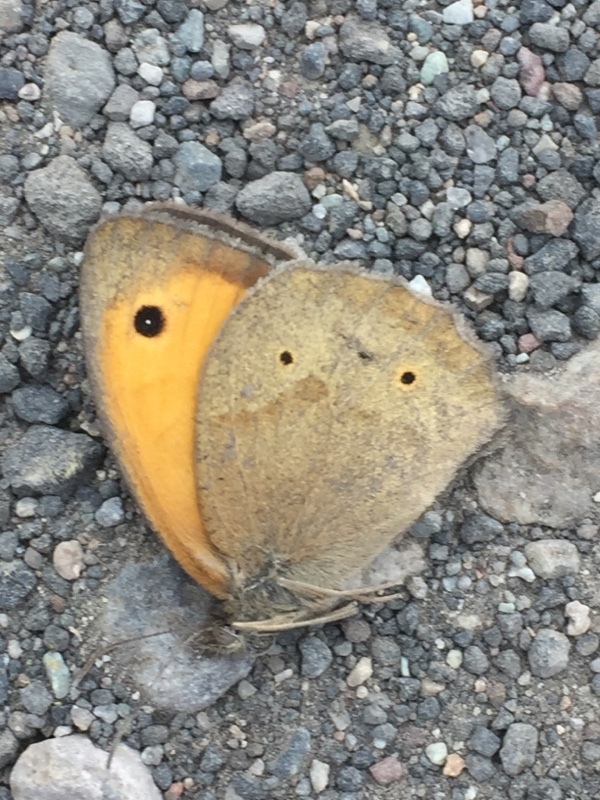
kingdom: Animalia
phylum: Arthropoda
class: Insecta
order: Lepidoptera
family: Nymphalidae
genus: Maniola
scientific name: Maniola jurtina
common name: Meadow brown
